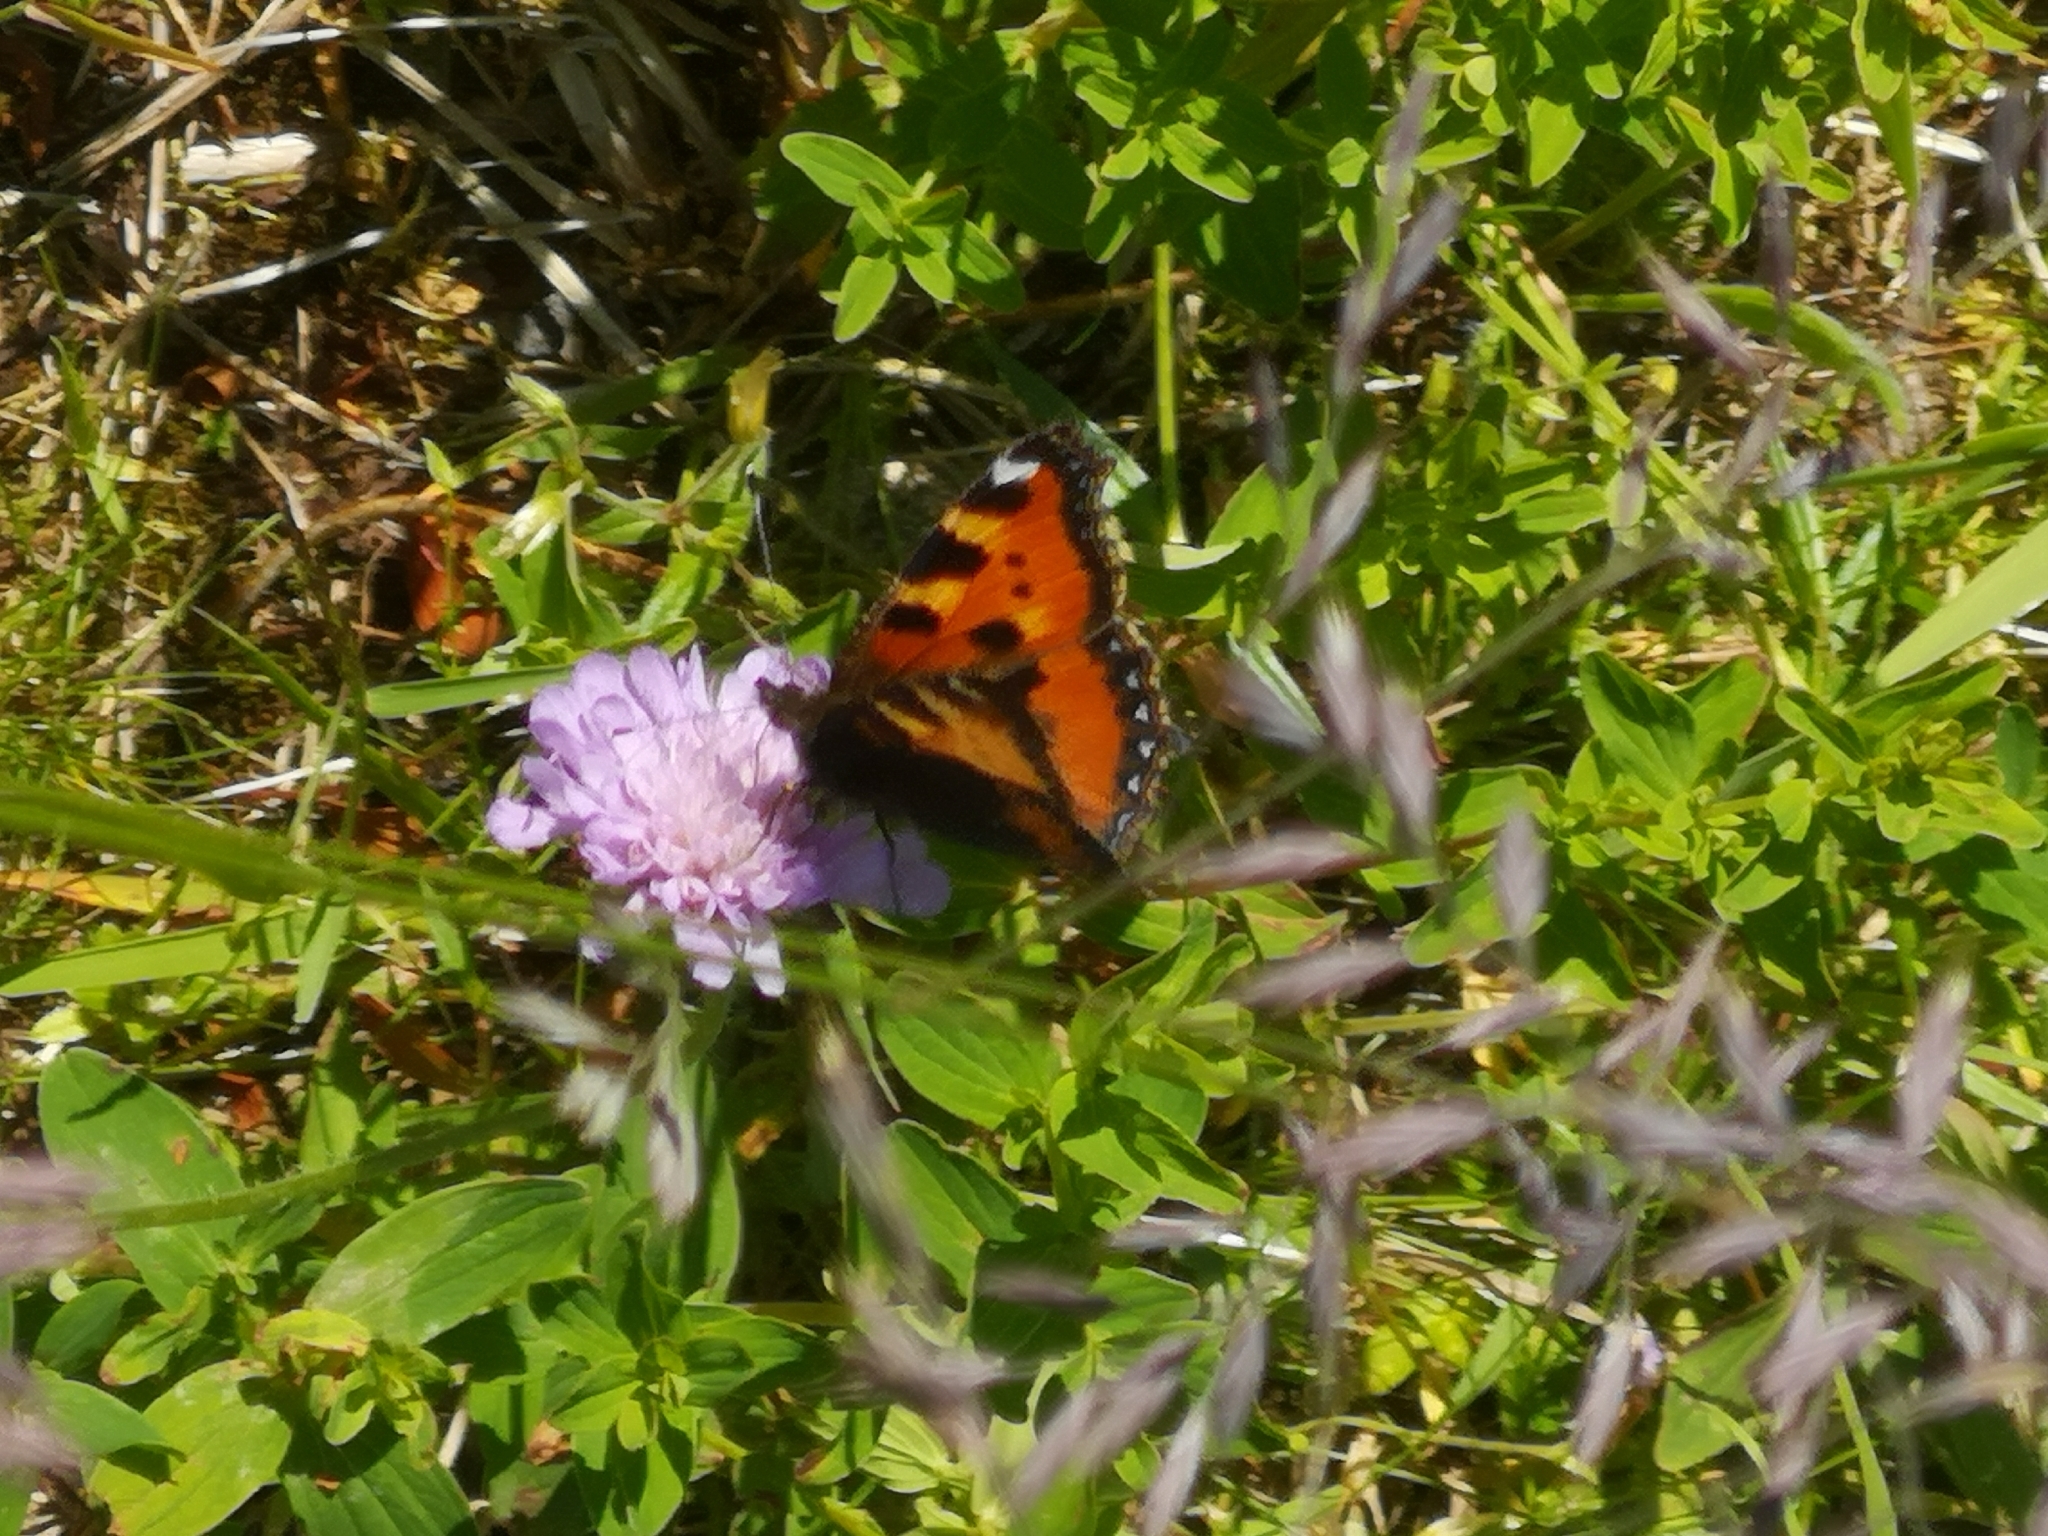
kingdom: Animalia
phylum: Arthropoda
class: Insecta
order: Lepidoptera
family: Nymphalidae
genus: Aglais
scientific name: Aglais urticae
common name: Small tortoiseshell
